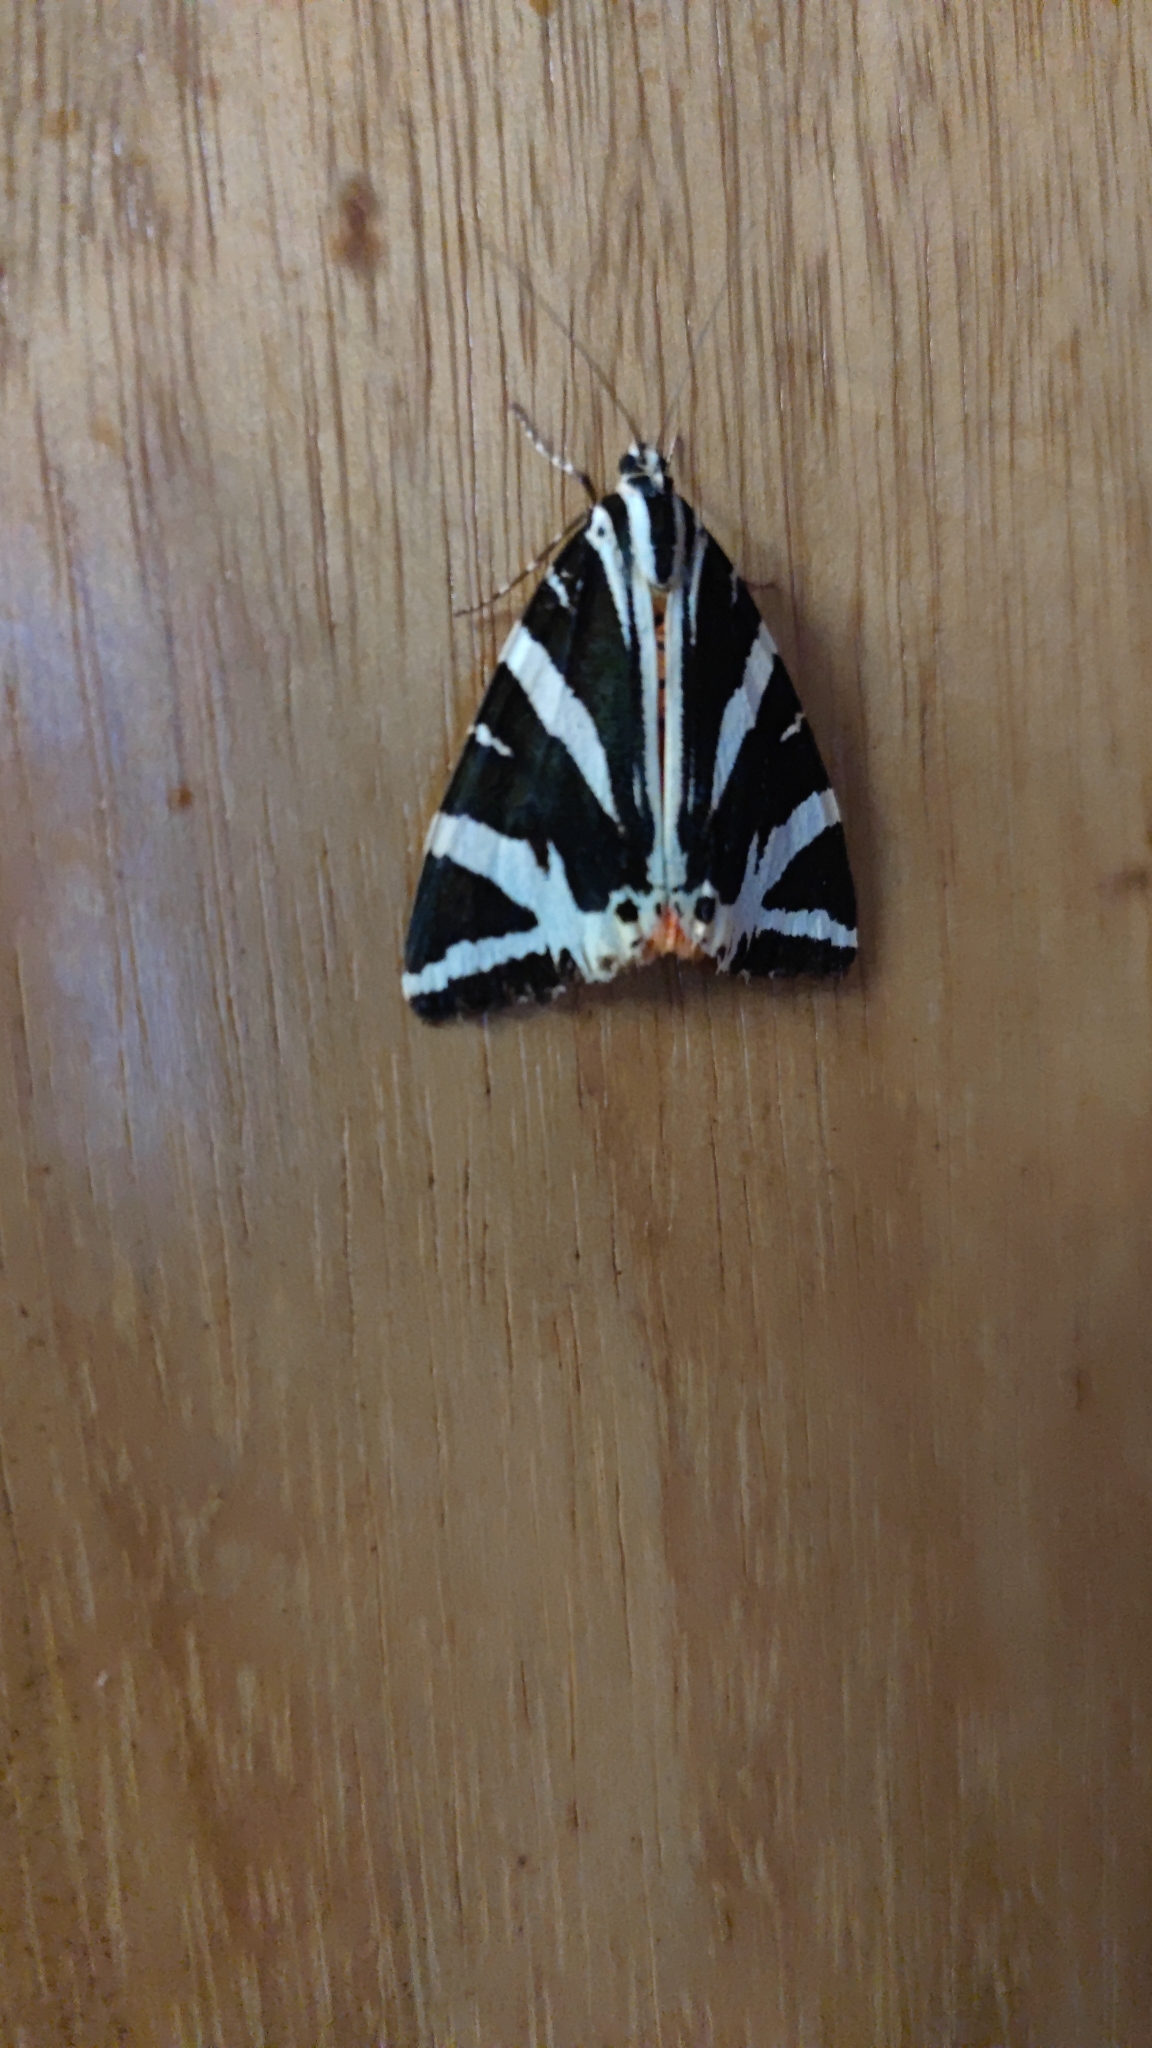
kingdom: Animalia
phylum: Arthropoda
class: Insecta
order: Lepidoptera
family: Erebidae
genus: Euplagia
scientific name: Euplagia quadripunctaria
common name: Jersey tiger
